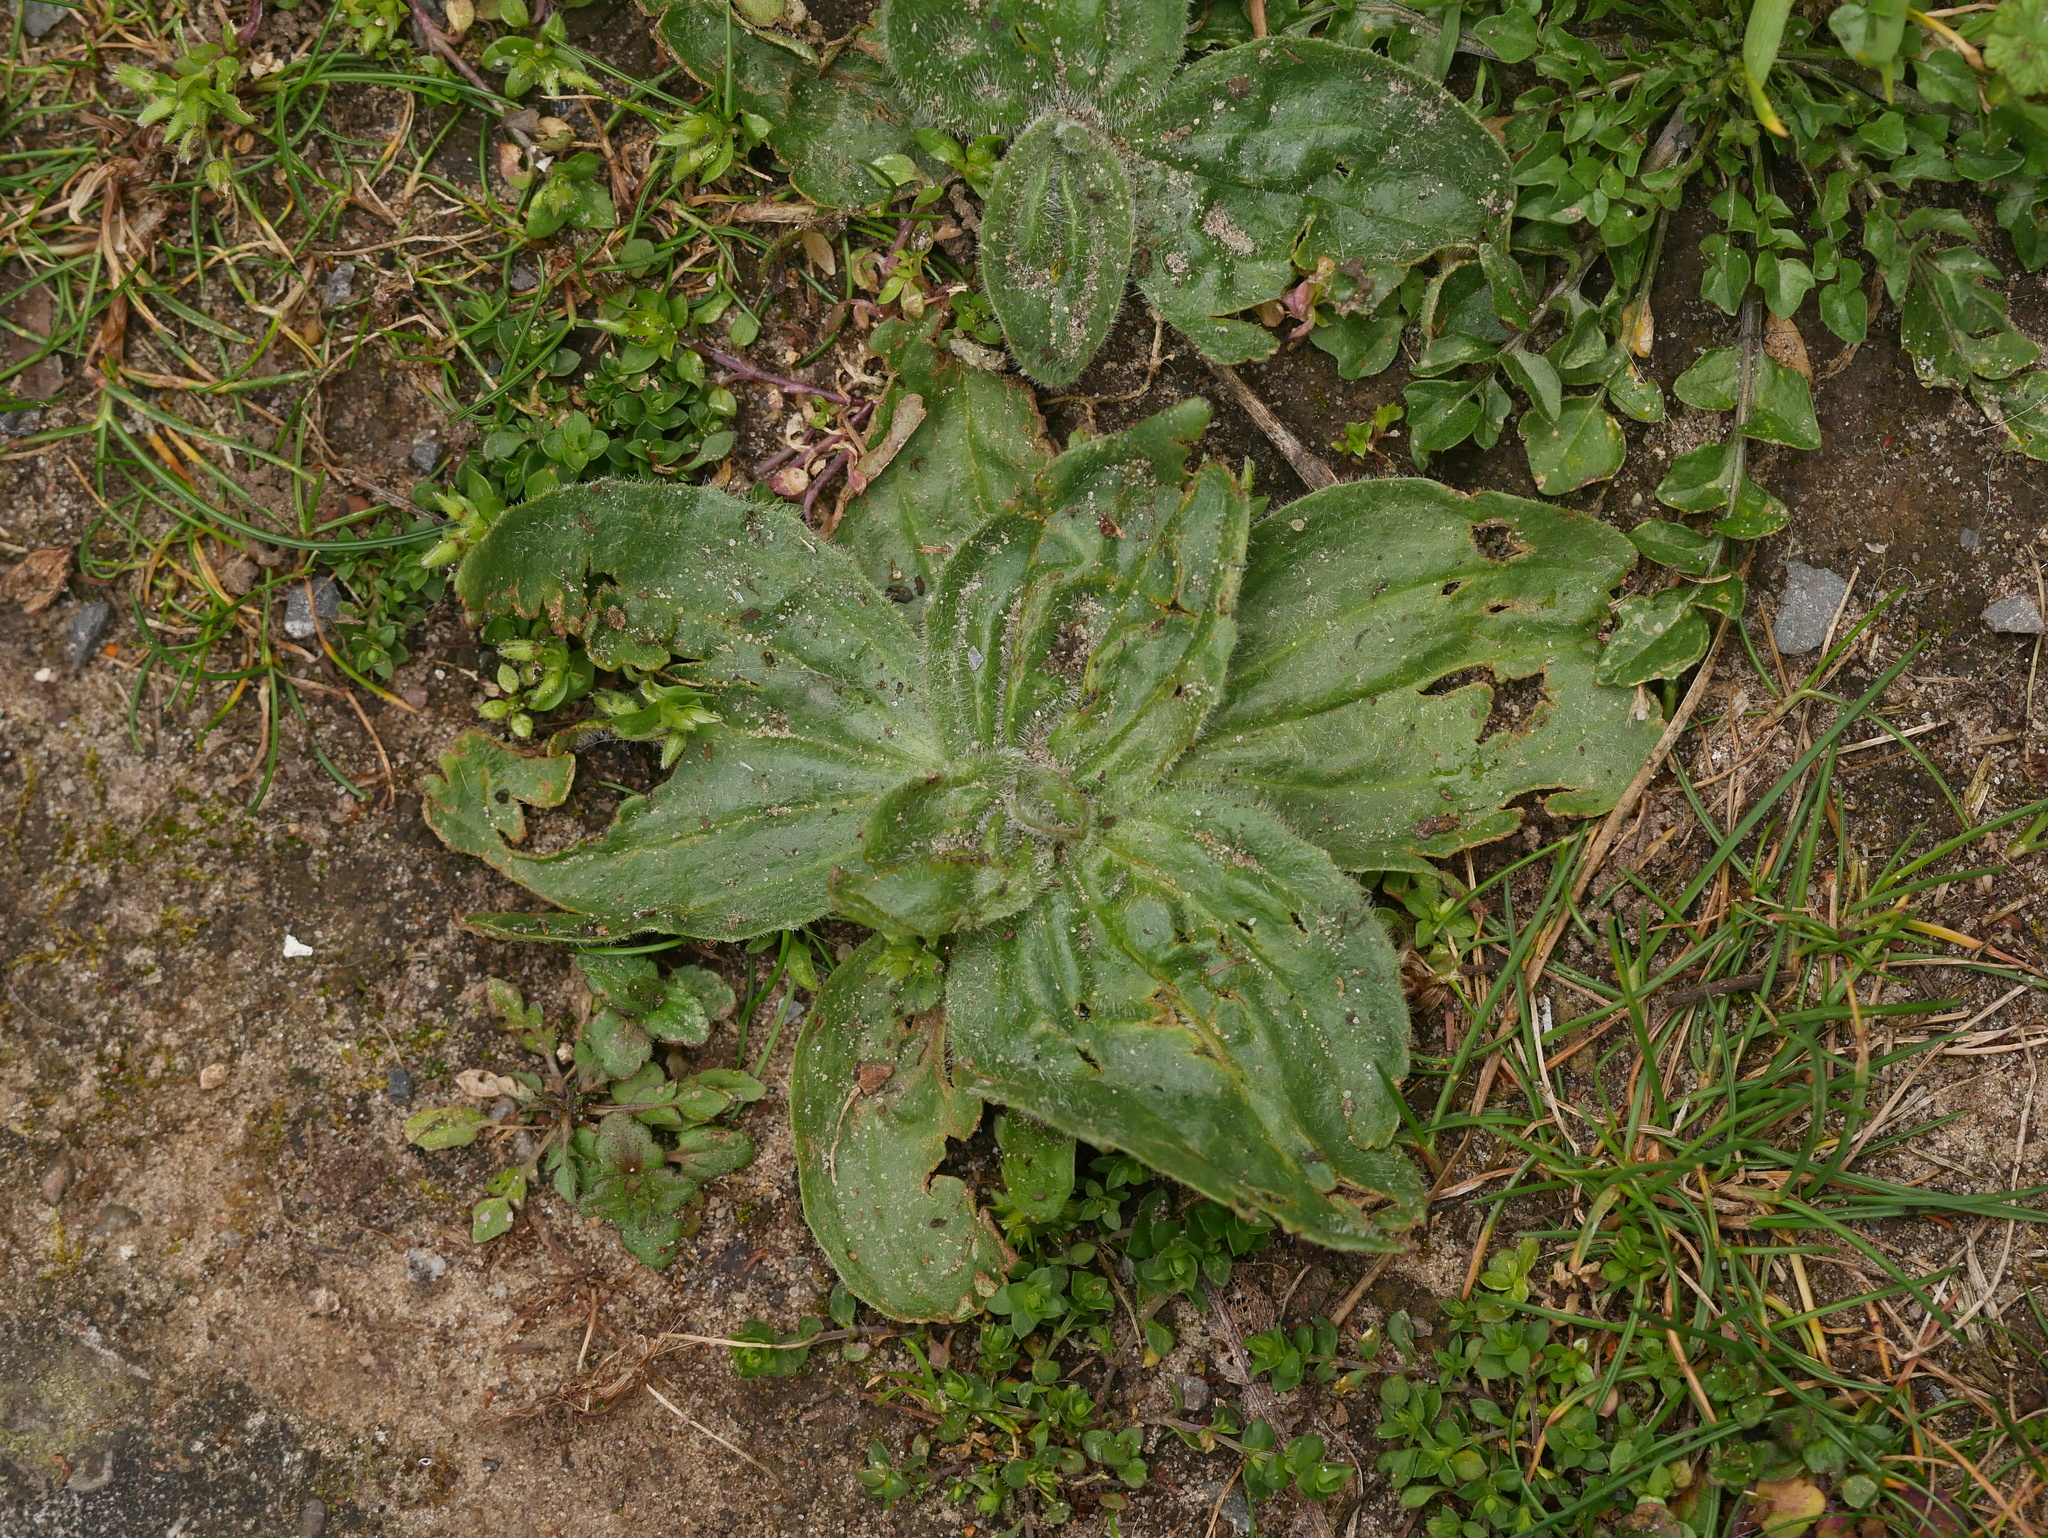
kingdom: Plantae
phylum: Tracheophyta
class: Magnoliopsida
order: Lamiales
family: Plantaginaceae
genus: Plantago
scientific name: Plantago media
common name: Hoary plantain
